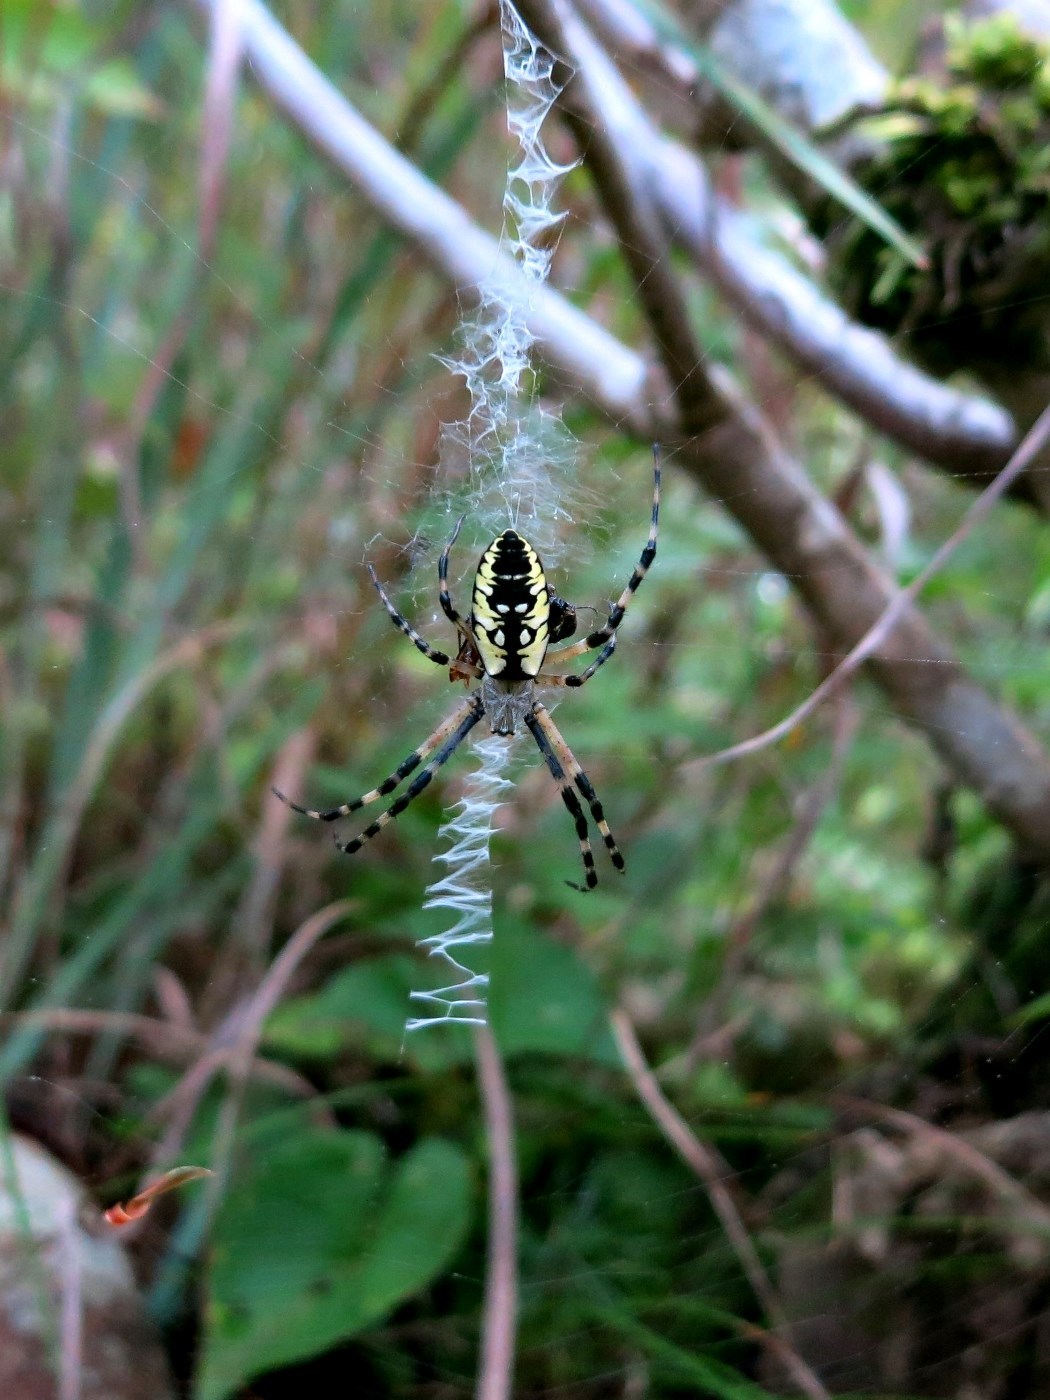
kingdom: Animalia
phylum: Arthropoda
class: Arachnida
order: Araneae
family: Araneidae
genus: Argiope
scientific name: Argiope aurantia
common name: Orb weavers
